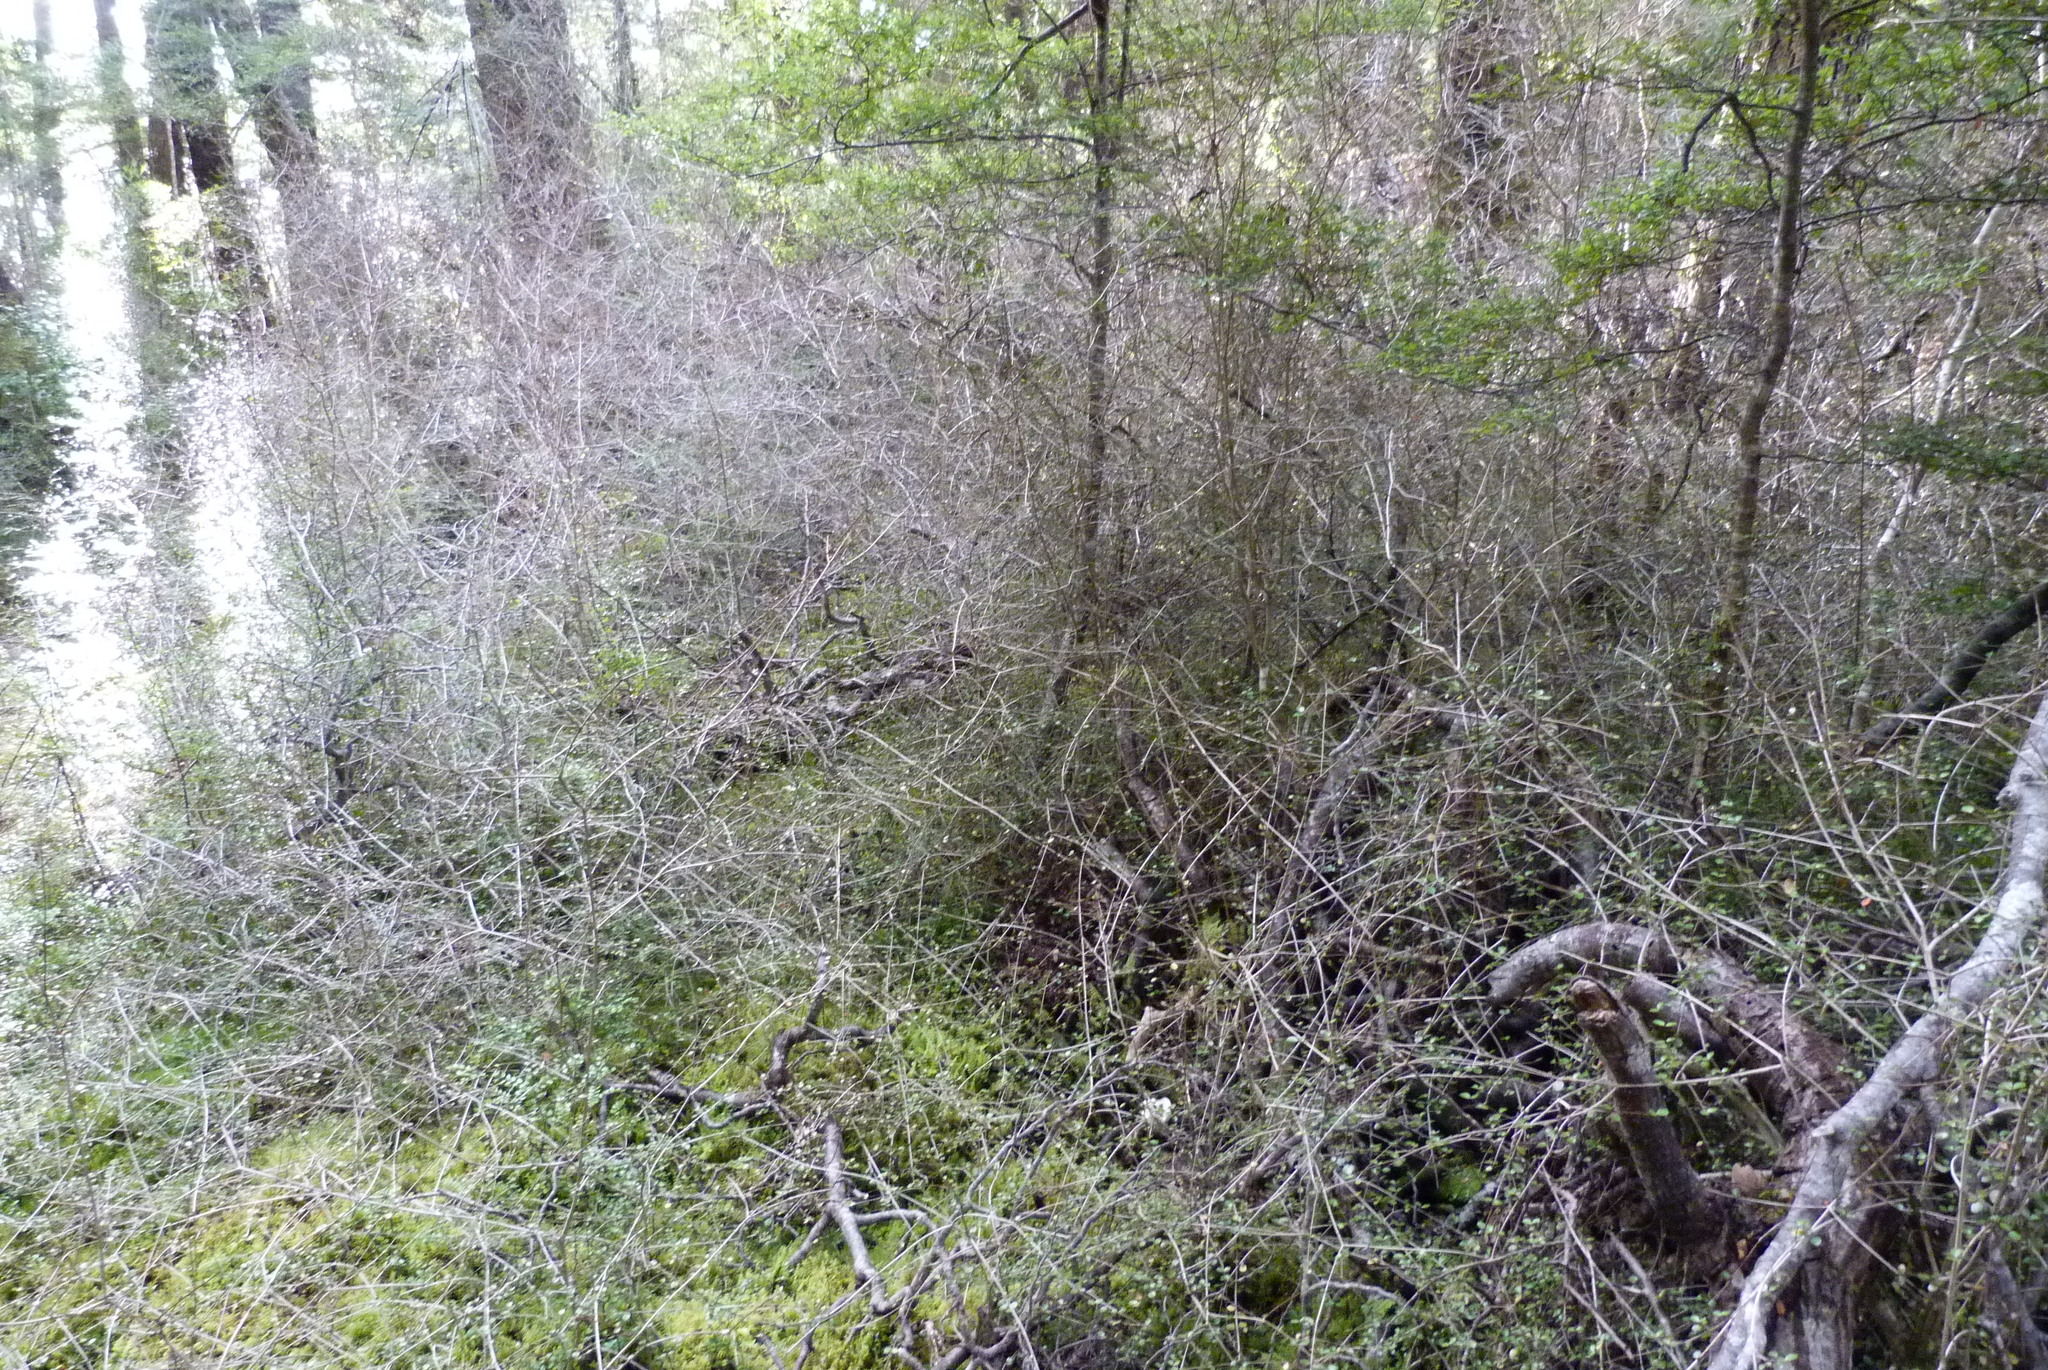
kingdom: Plantae
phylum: Tracheophyta
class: Magnoliopsida
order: Myrtales
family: Myrtaceae
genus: Neomyrtus
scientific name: Neomyrtus pedunculata
